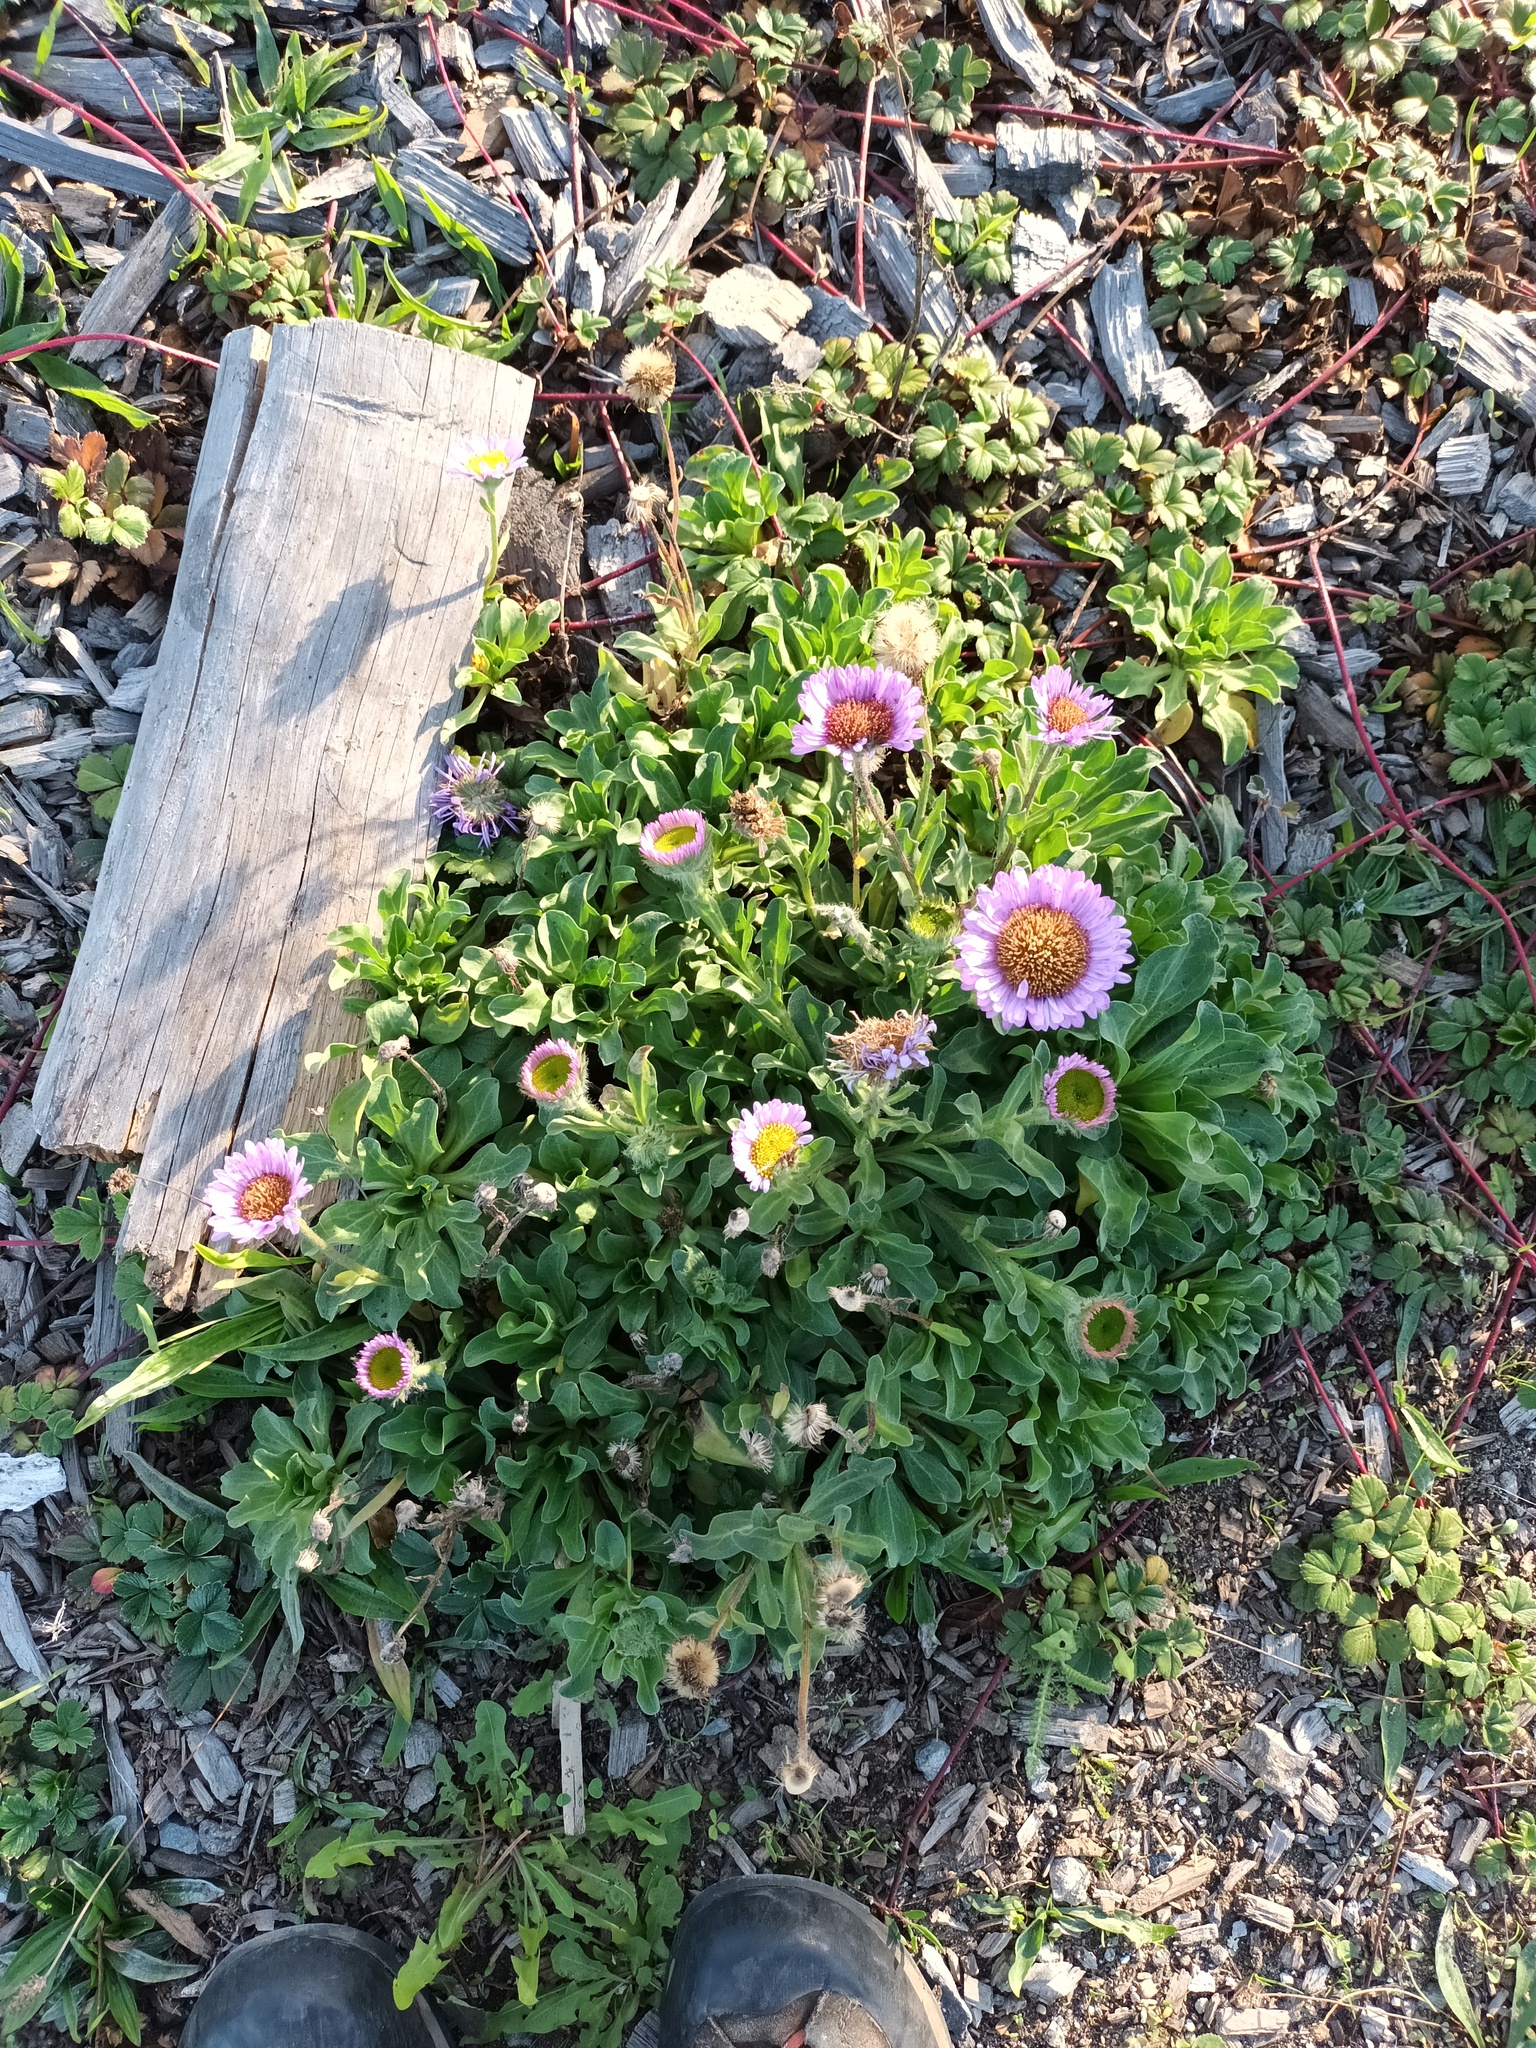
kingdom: Plantae
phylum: Tracheophyta
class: Magnoliopsida
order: Asterales
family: Asteraceae
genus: Erigeron
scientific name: Erigeron glaucus
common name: Seaside daisy
